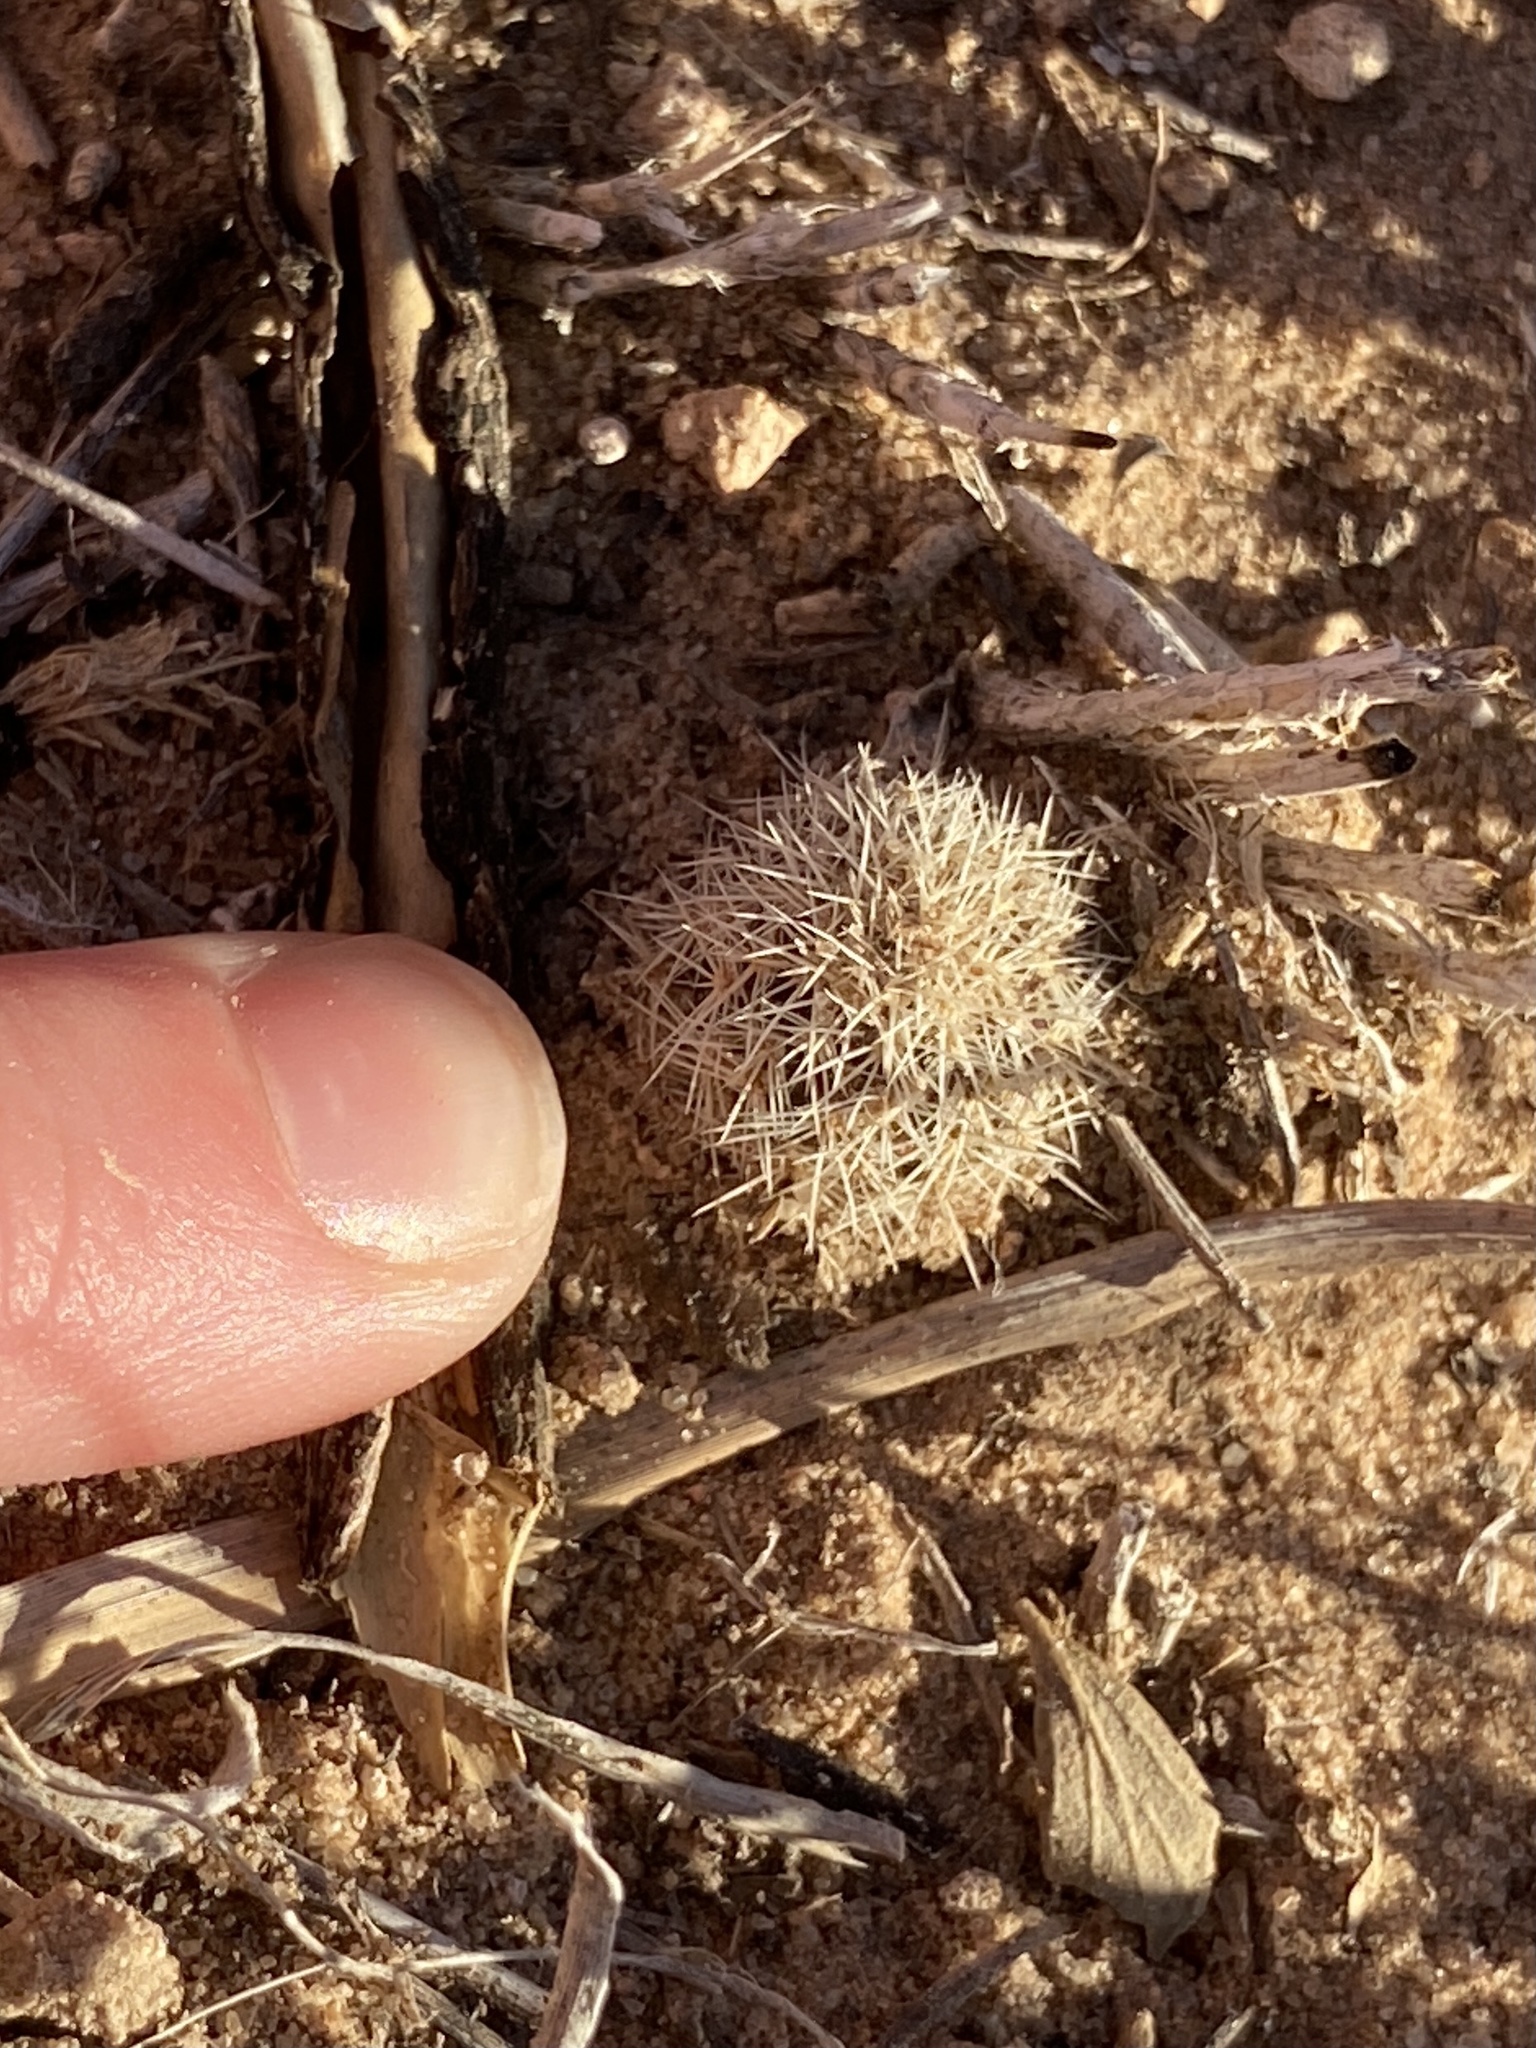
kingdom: Plantae
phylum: Tracheophyta
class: Magnoliopsida
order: Caryophyllales
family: Cactaceae
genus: Echinocereus
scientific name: Echinocereus reichenbachii
